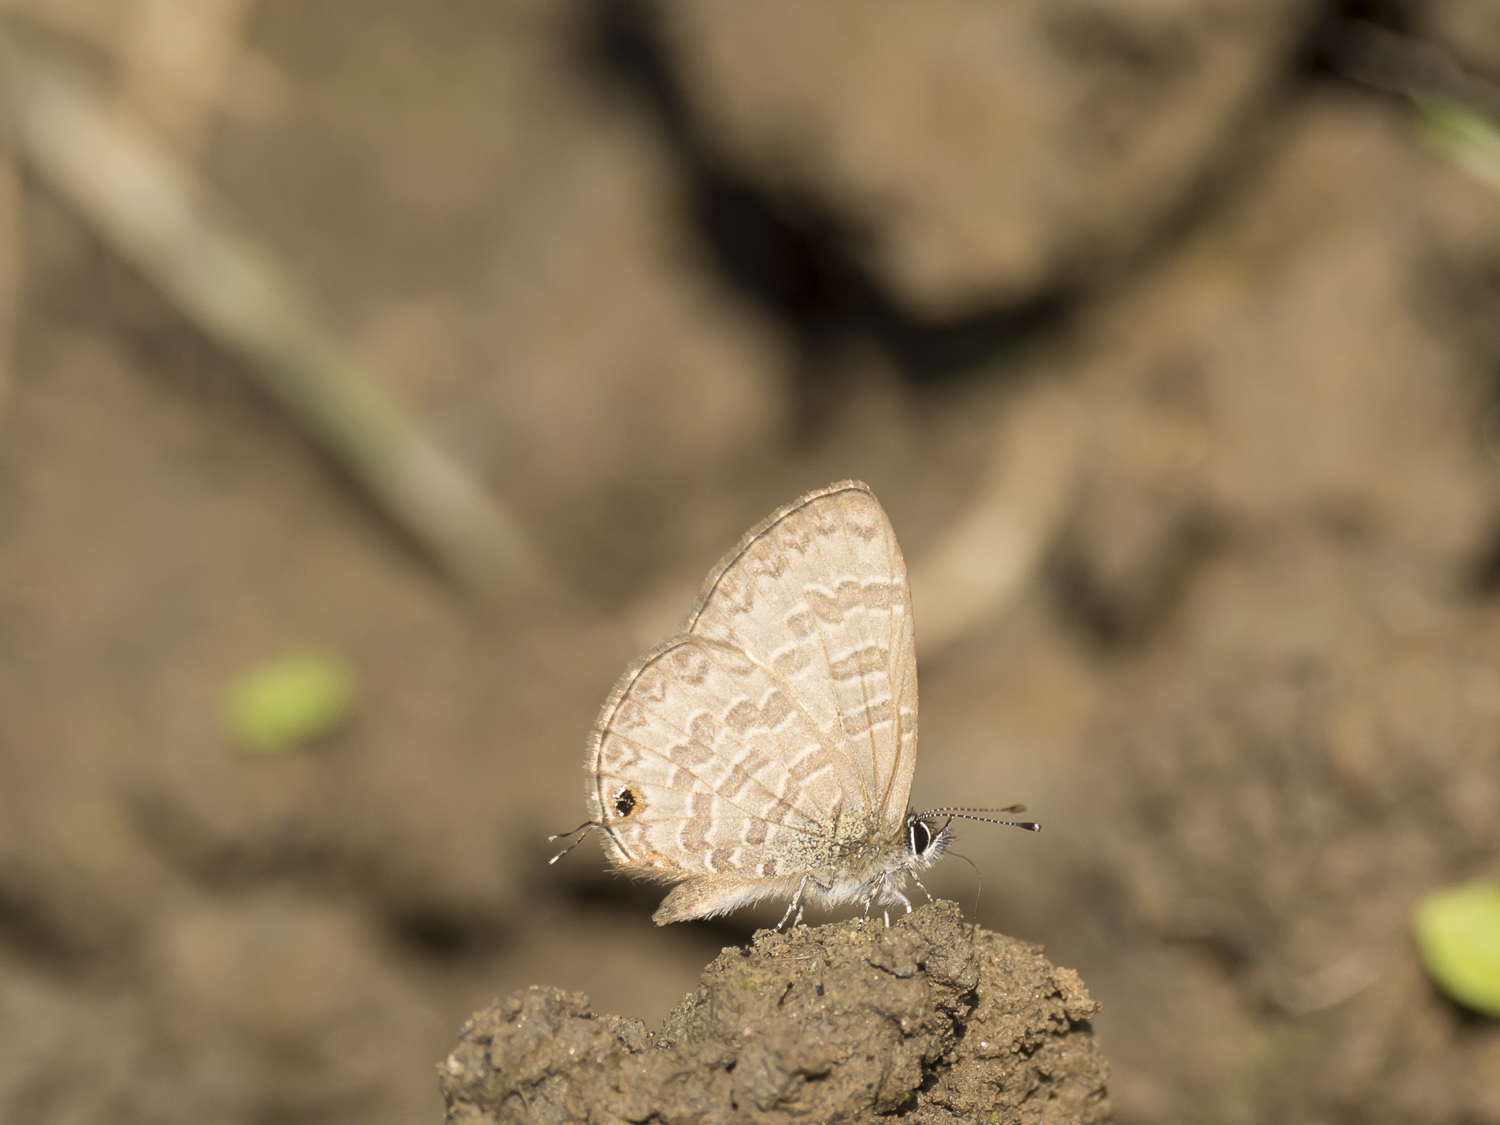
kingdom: Animalia
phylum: Arthropoda
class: Insecta
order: Lepidoptera
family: Lycaenidae
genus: Prosotas
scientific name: Prosotas nora
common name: Common line blue
